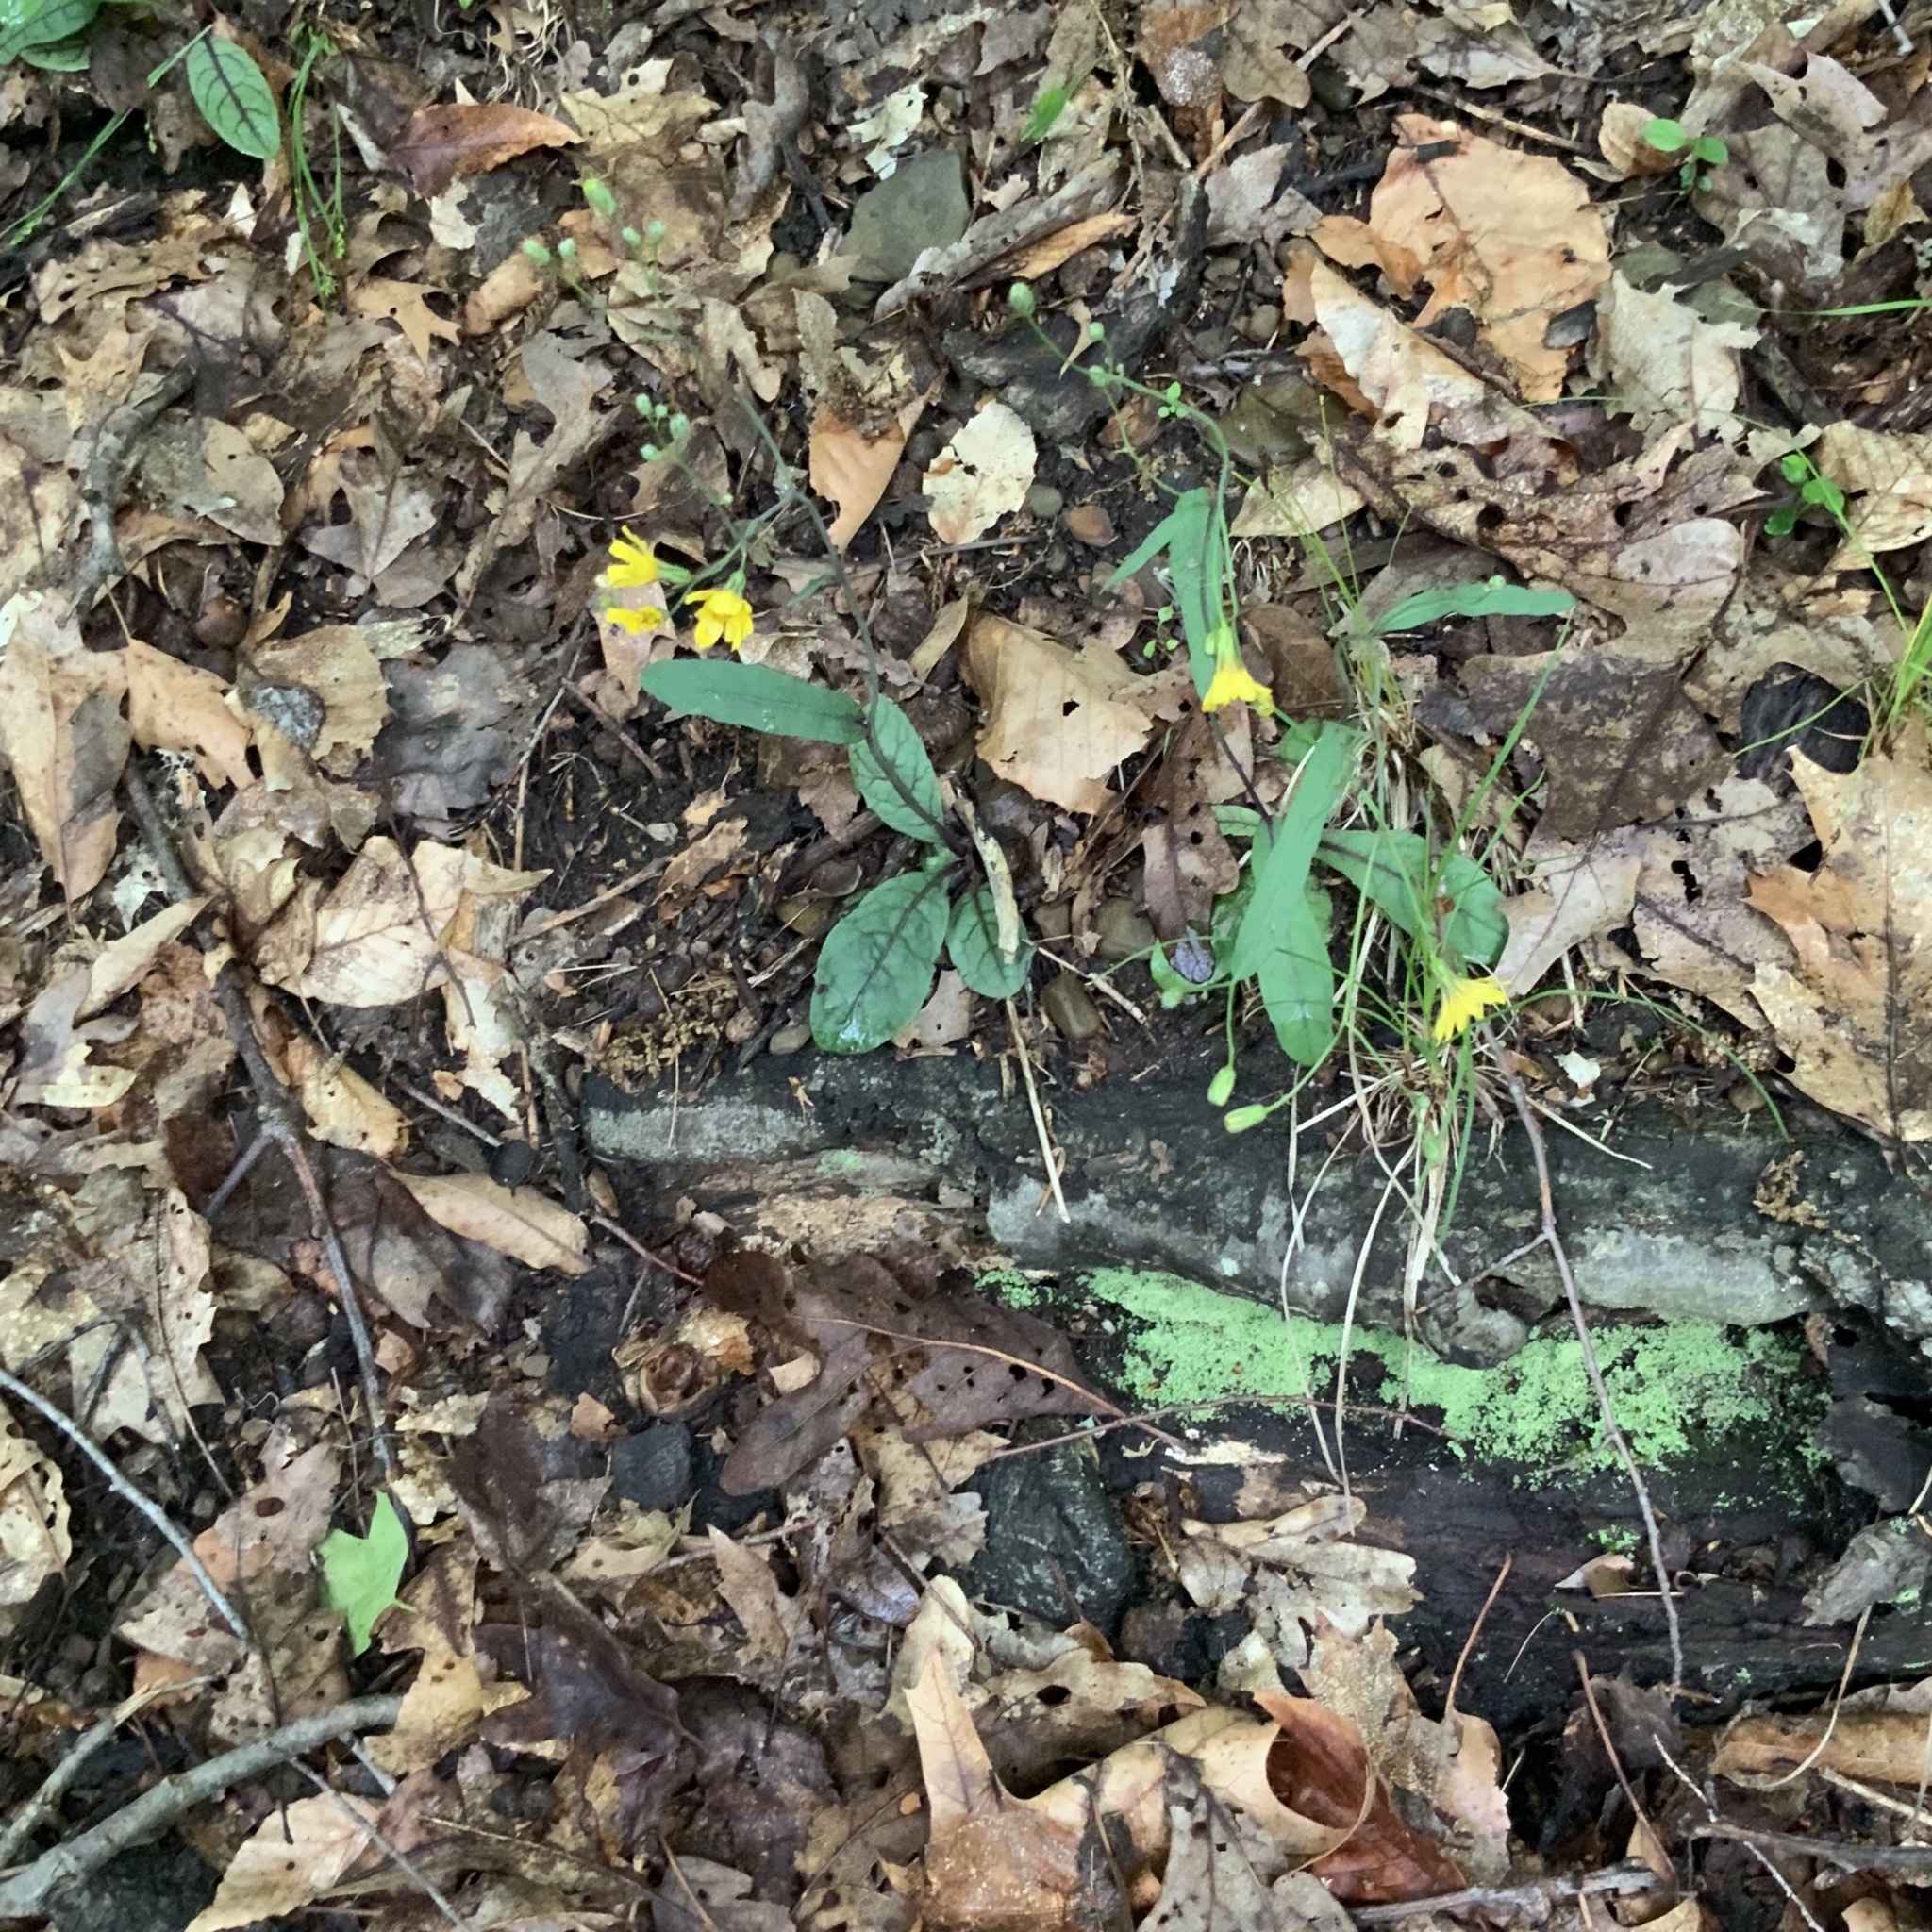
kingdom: Plantae
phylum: Tracheophyta
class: Magnoliopsida
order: Asterales
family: Asteraceae
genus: Hieracium
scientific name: Hieracium venosum
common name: Rattlesnake hawkweed
